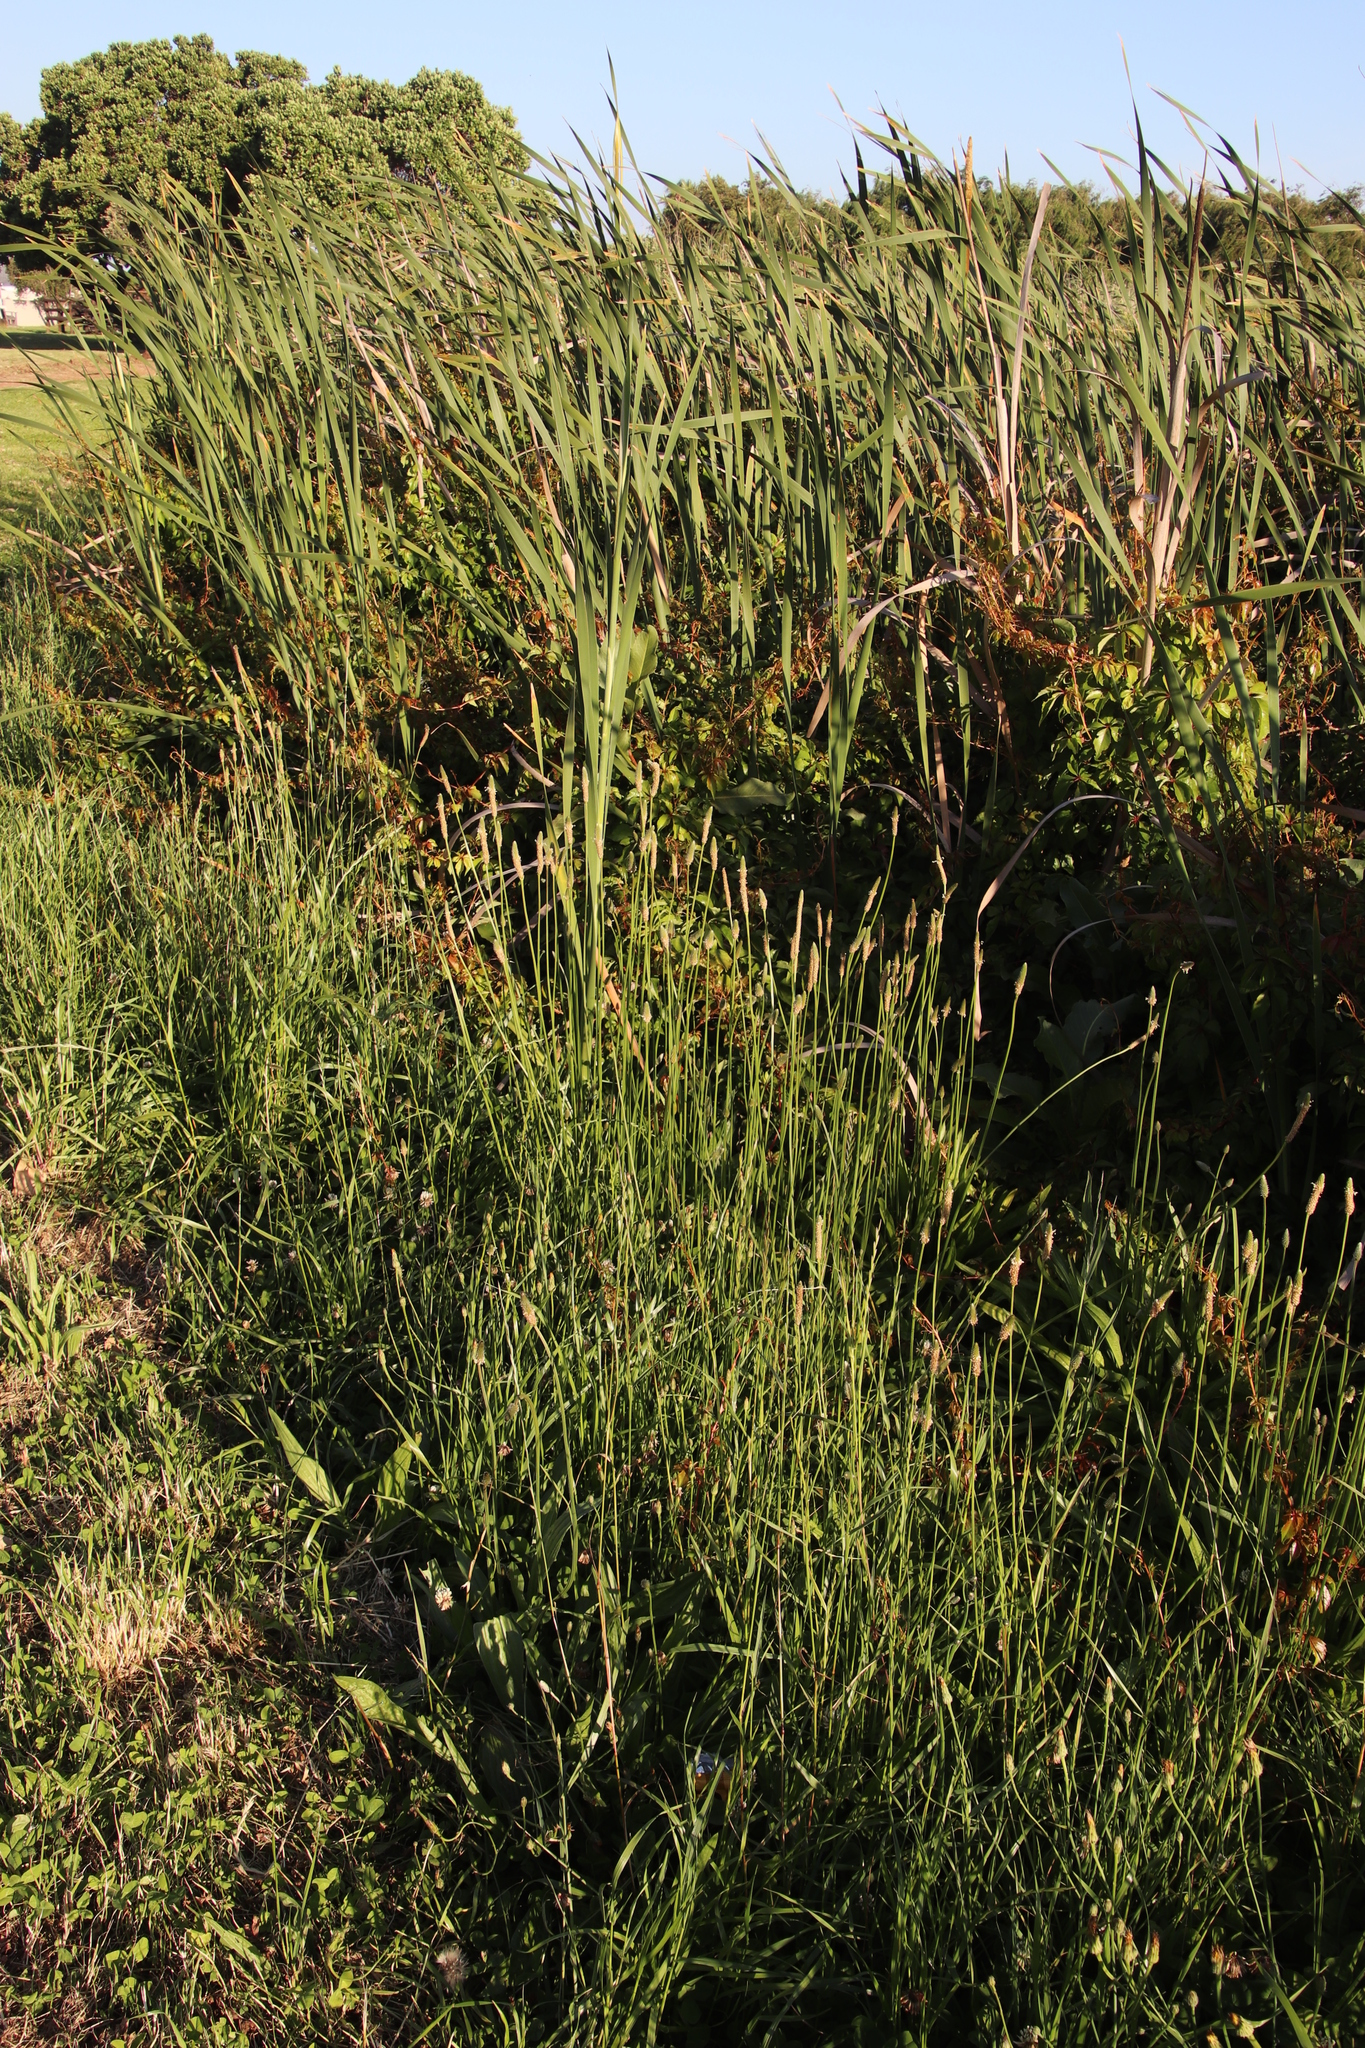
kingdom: Plantae
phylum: Tracheophyta
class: Magnoliopsida
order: Lamiales
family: Plantaginaceae
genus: Plantago
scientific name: Plantago lanceolata
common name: Ribwort plantain
